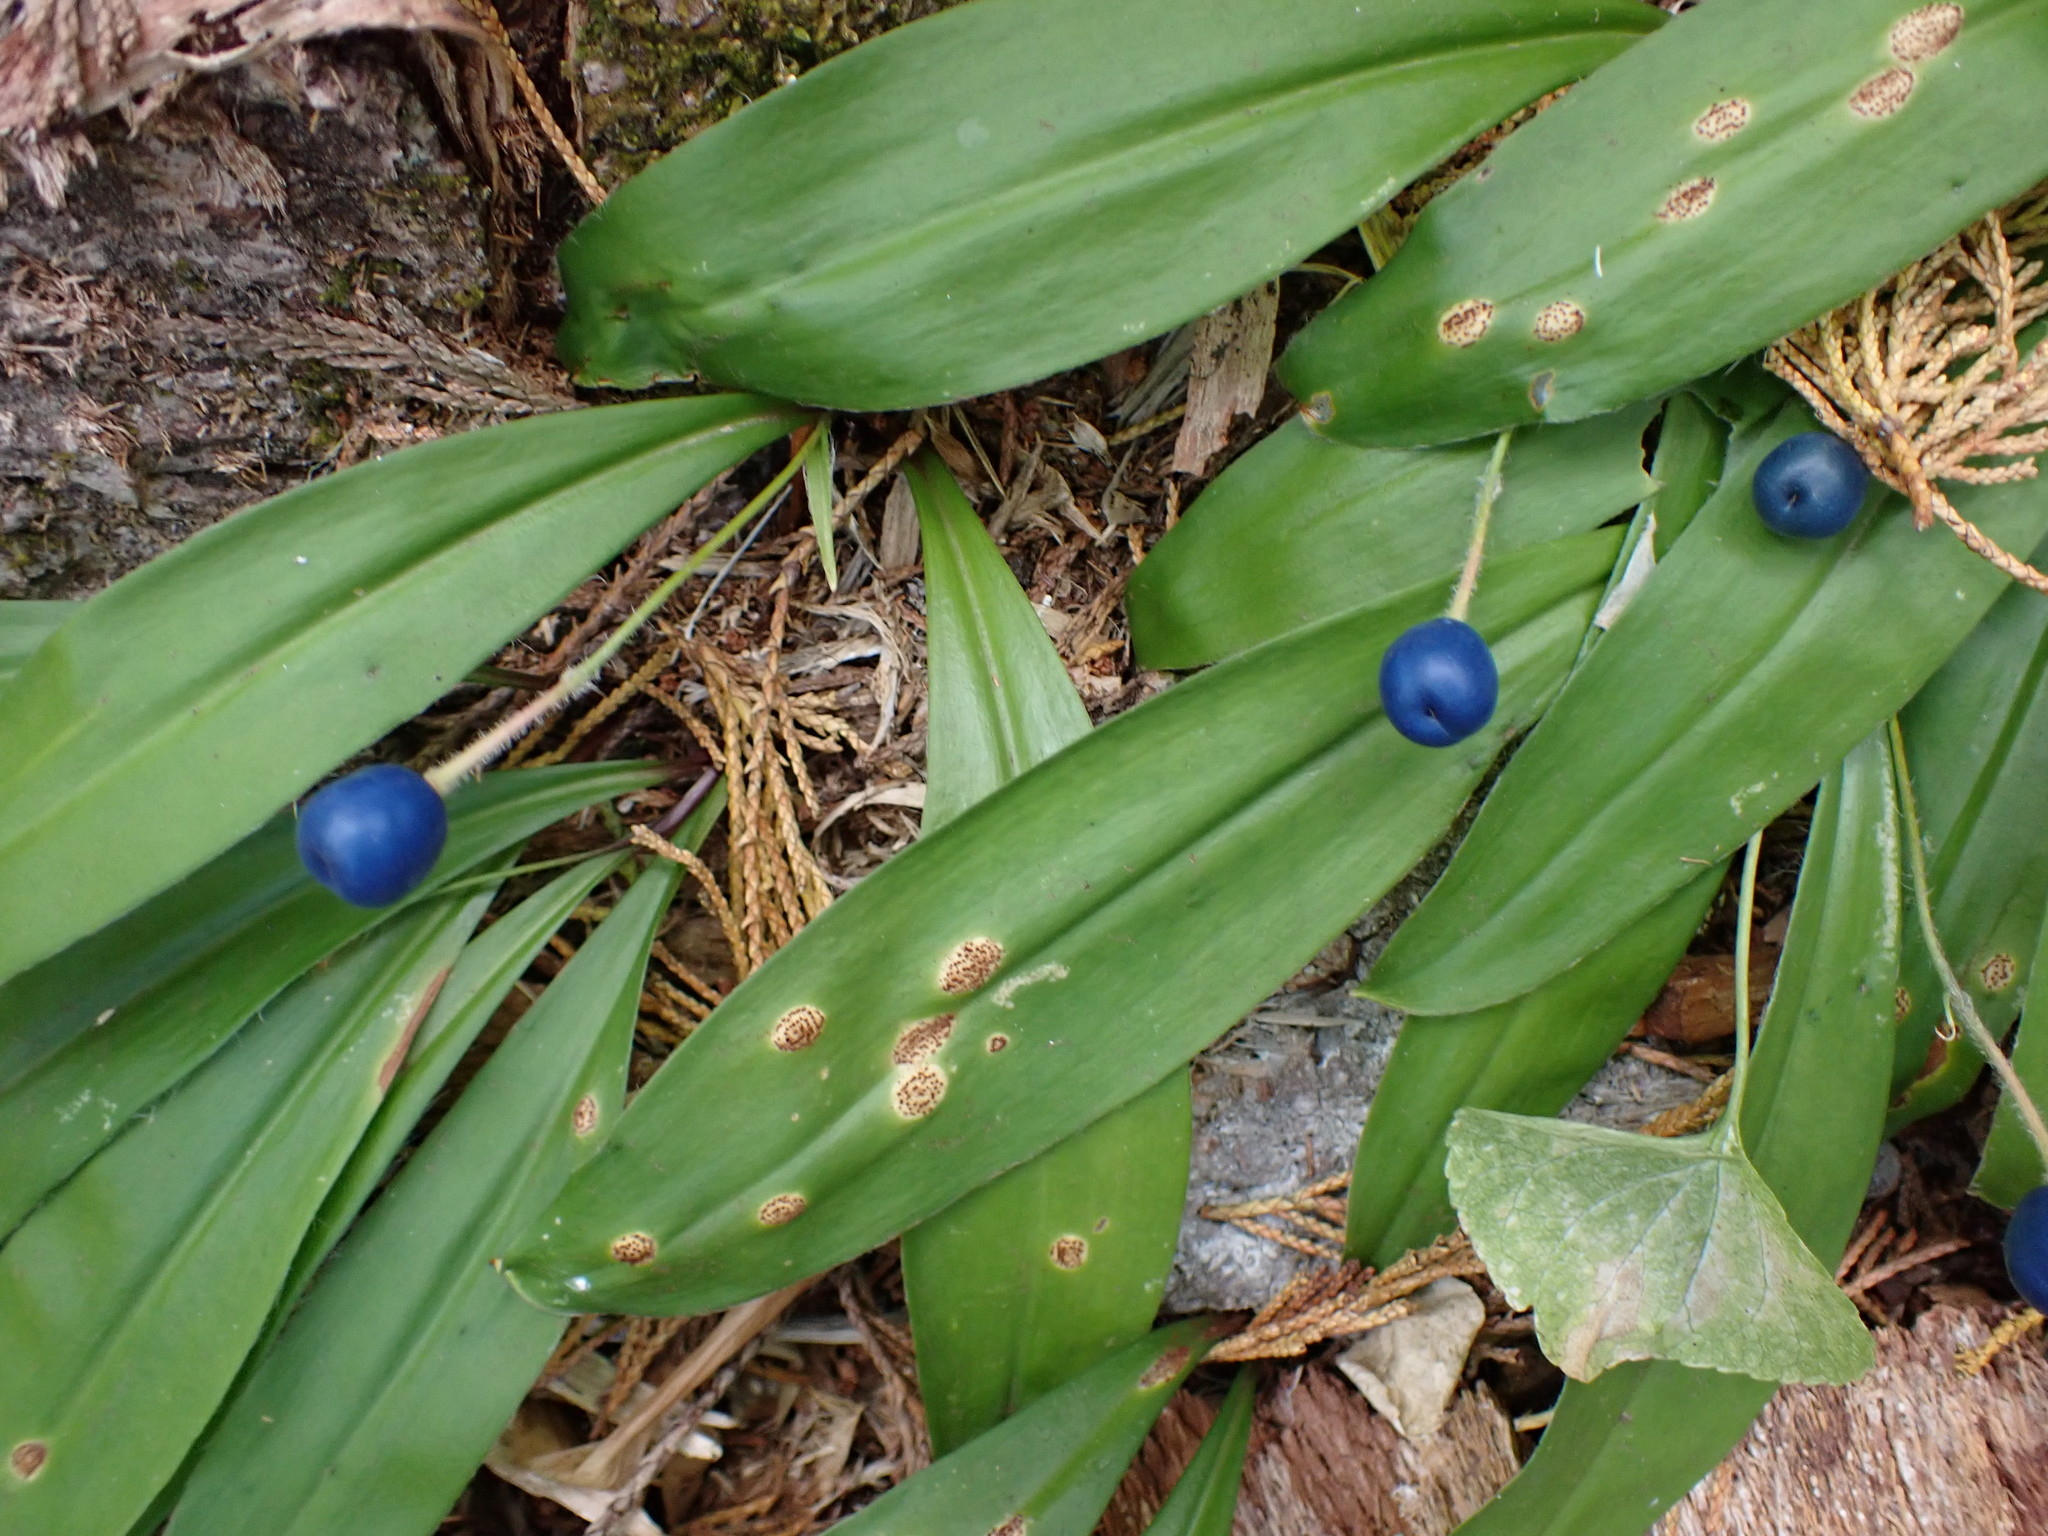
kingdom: Plantae
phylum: Tracheophyta
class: Liliopsida
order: Liliales
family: Liliaceae
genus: Clintonia
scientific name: Clintonia uniflora
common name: Queen's cup
